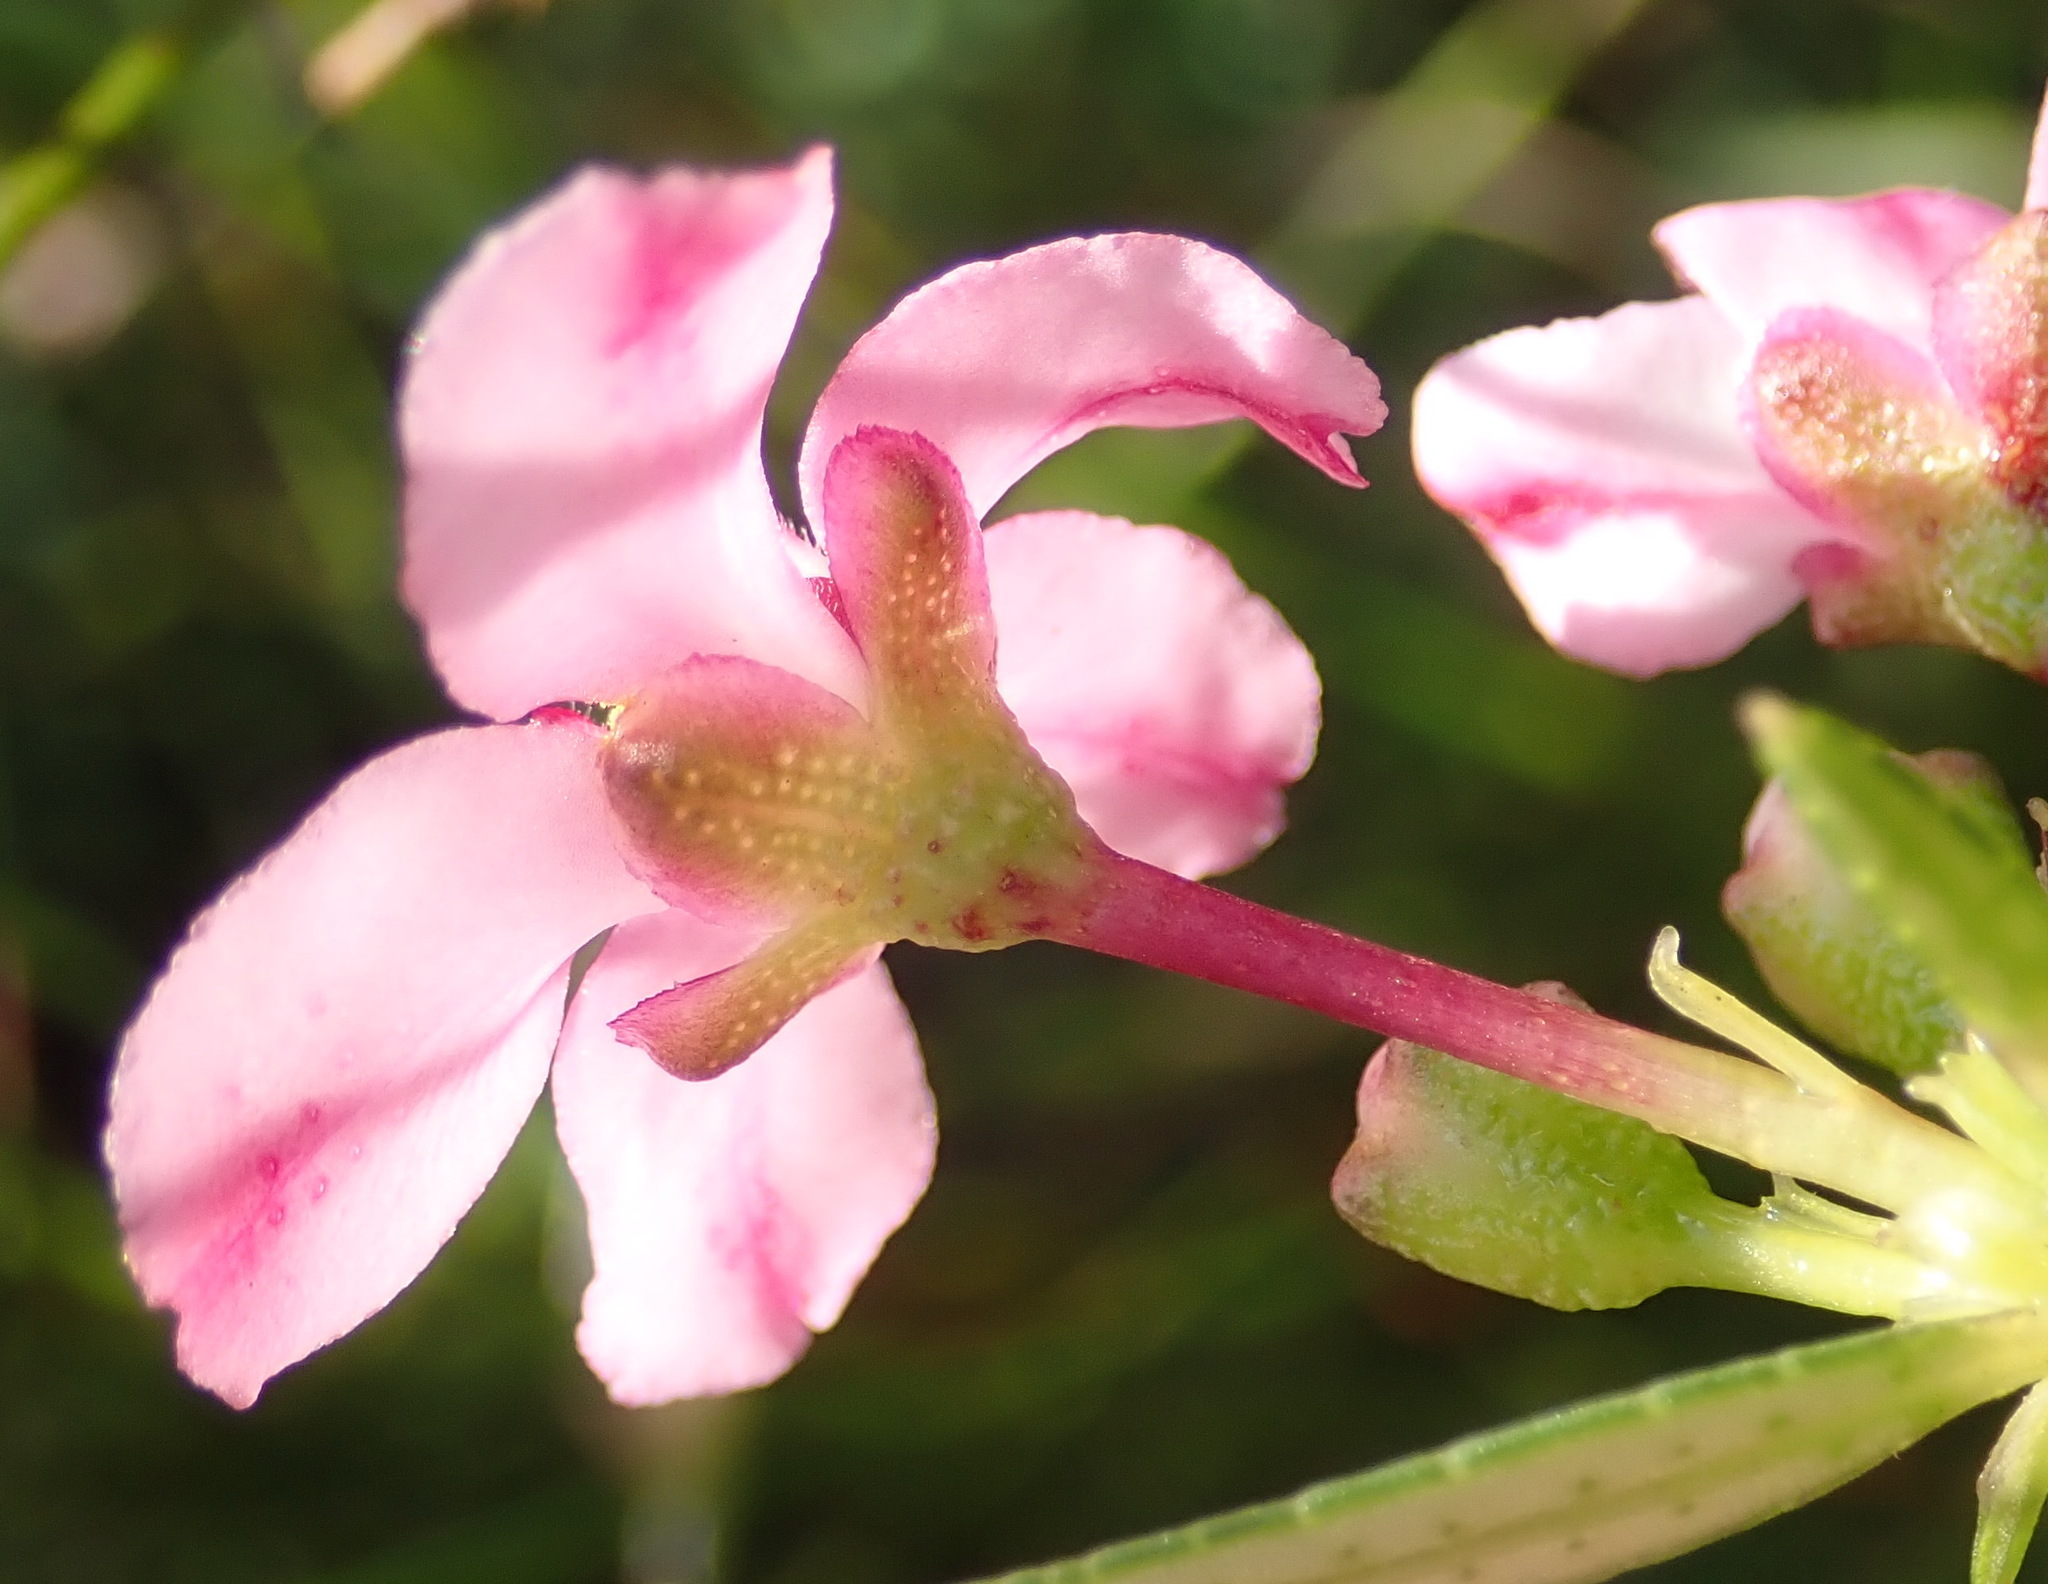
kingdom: Plantae
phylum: Tracheophyta
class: Magnoliopsida
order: Sapindales
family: Rutaceae
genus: Adenandra
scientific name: Adenandra fragrans
